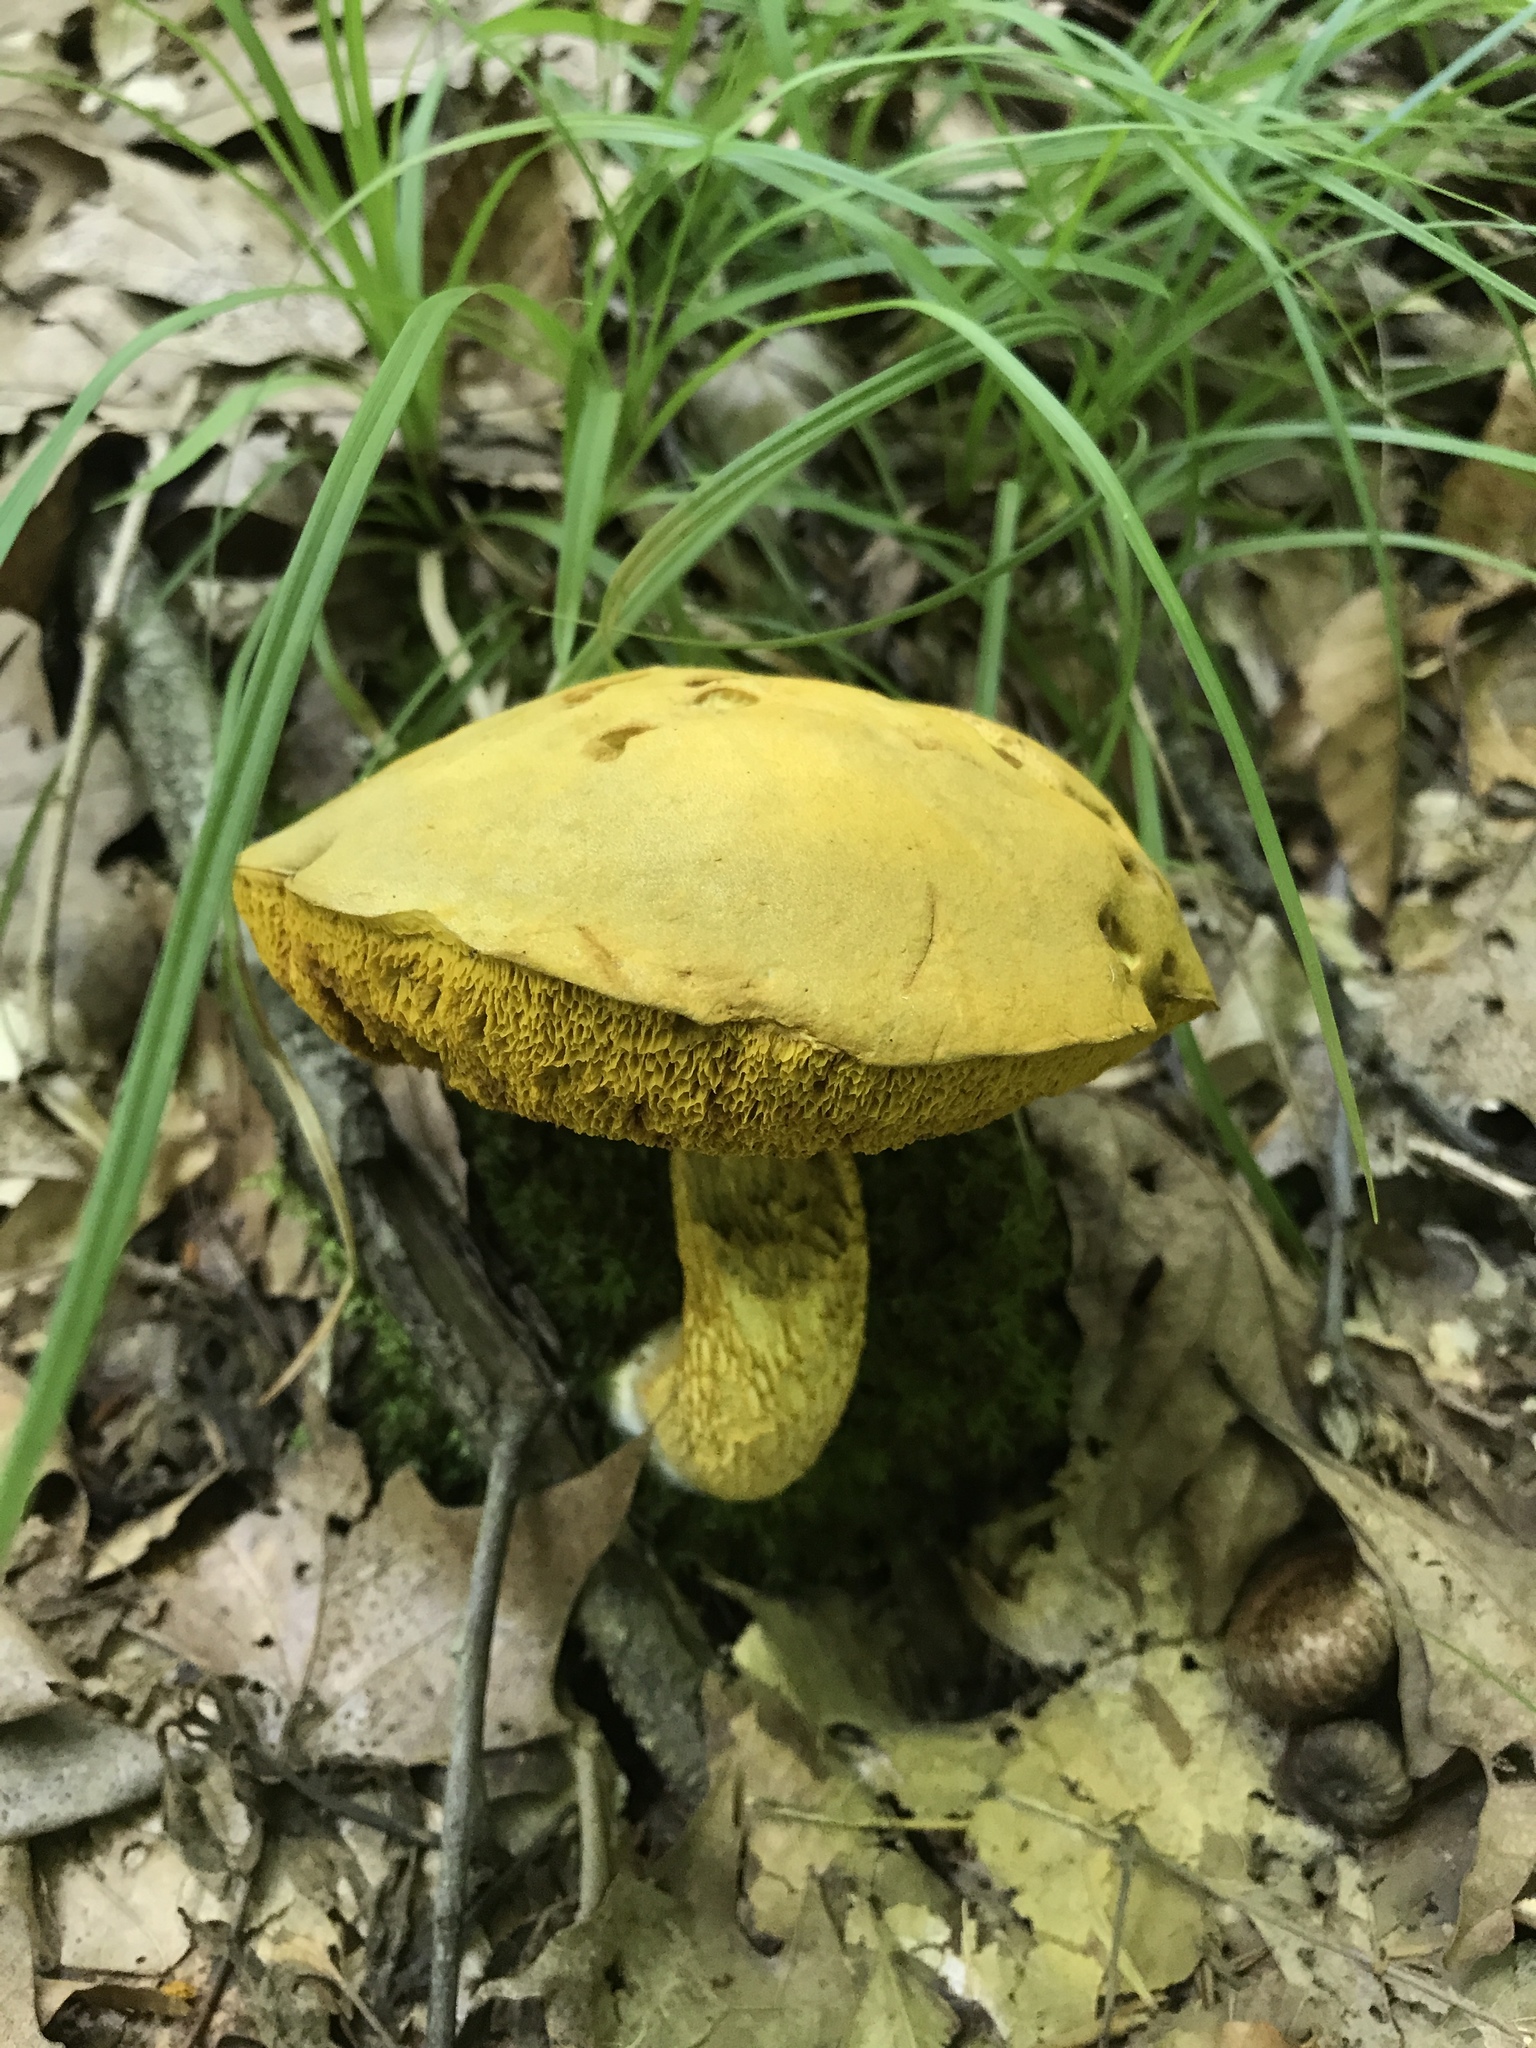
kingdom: Fungi
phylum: Basidiomycota
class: Agaricomycetes
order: Boletales
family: Boletaceae
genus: Retiboletus
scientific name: Retiboletus ornatipes
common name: Ornate-stalked bolete
